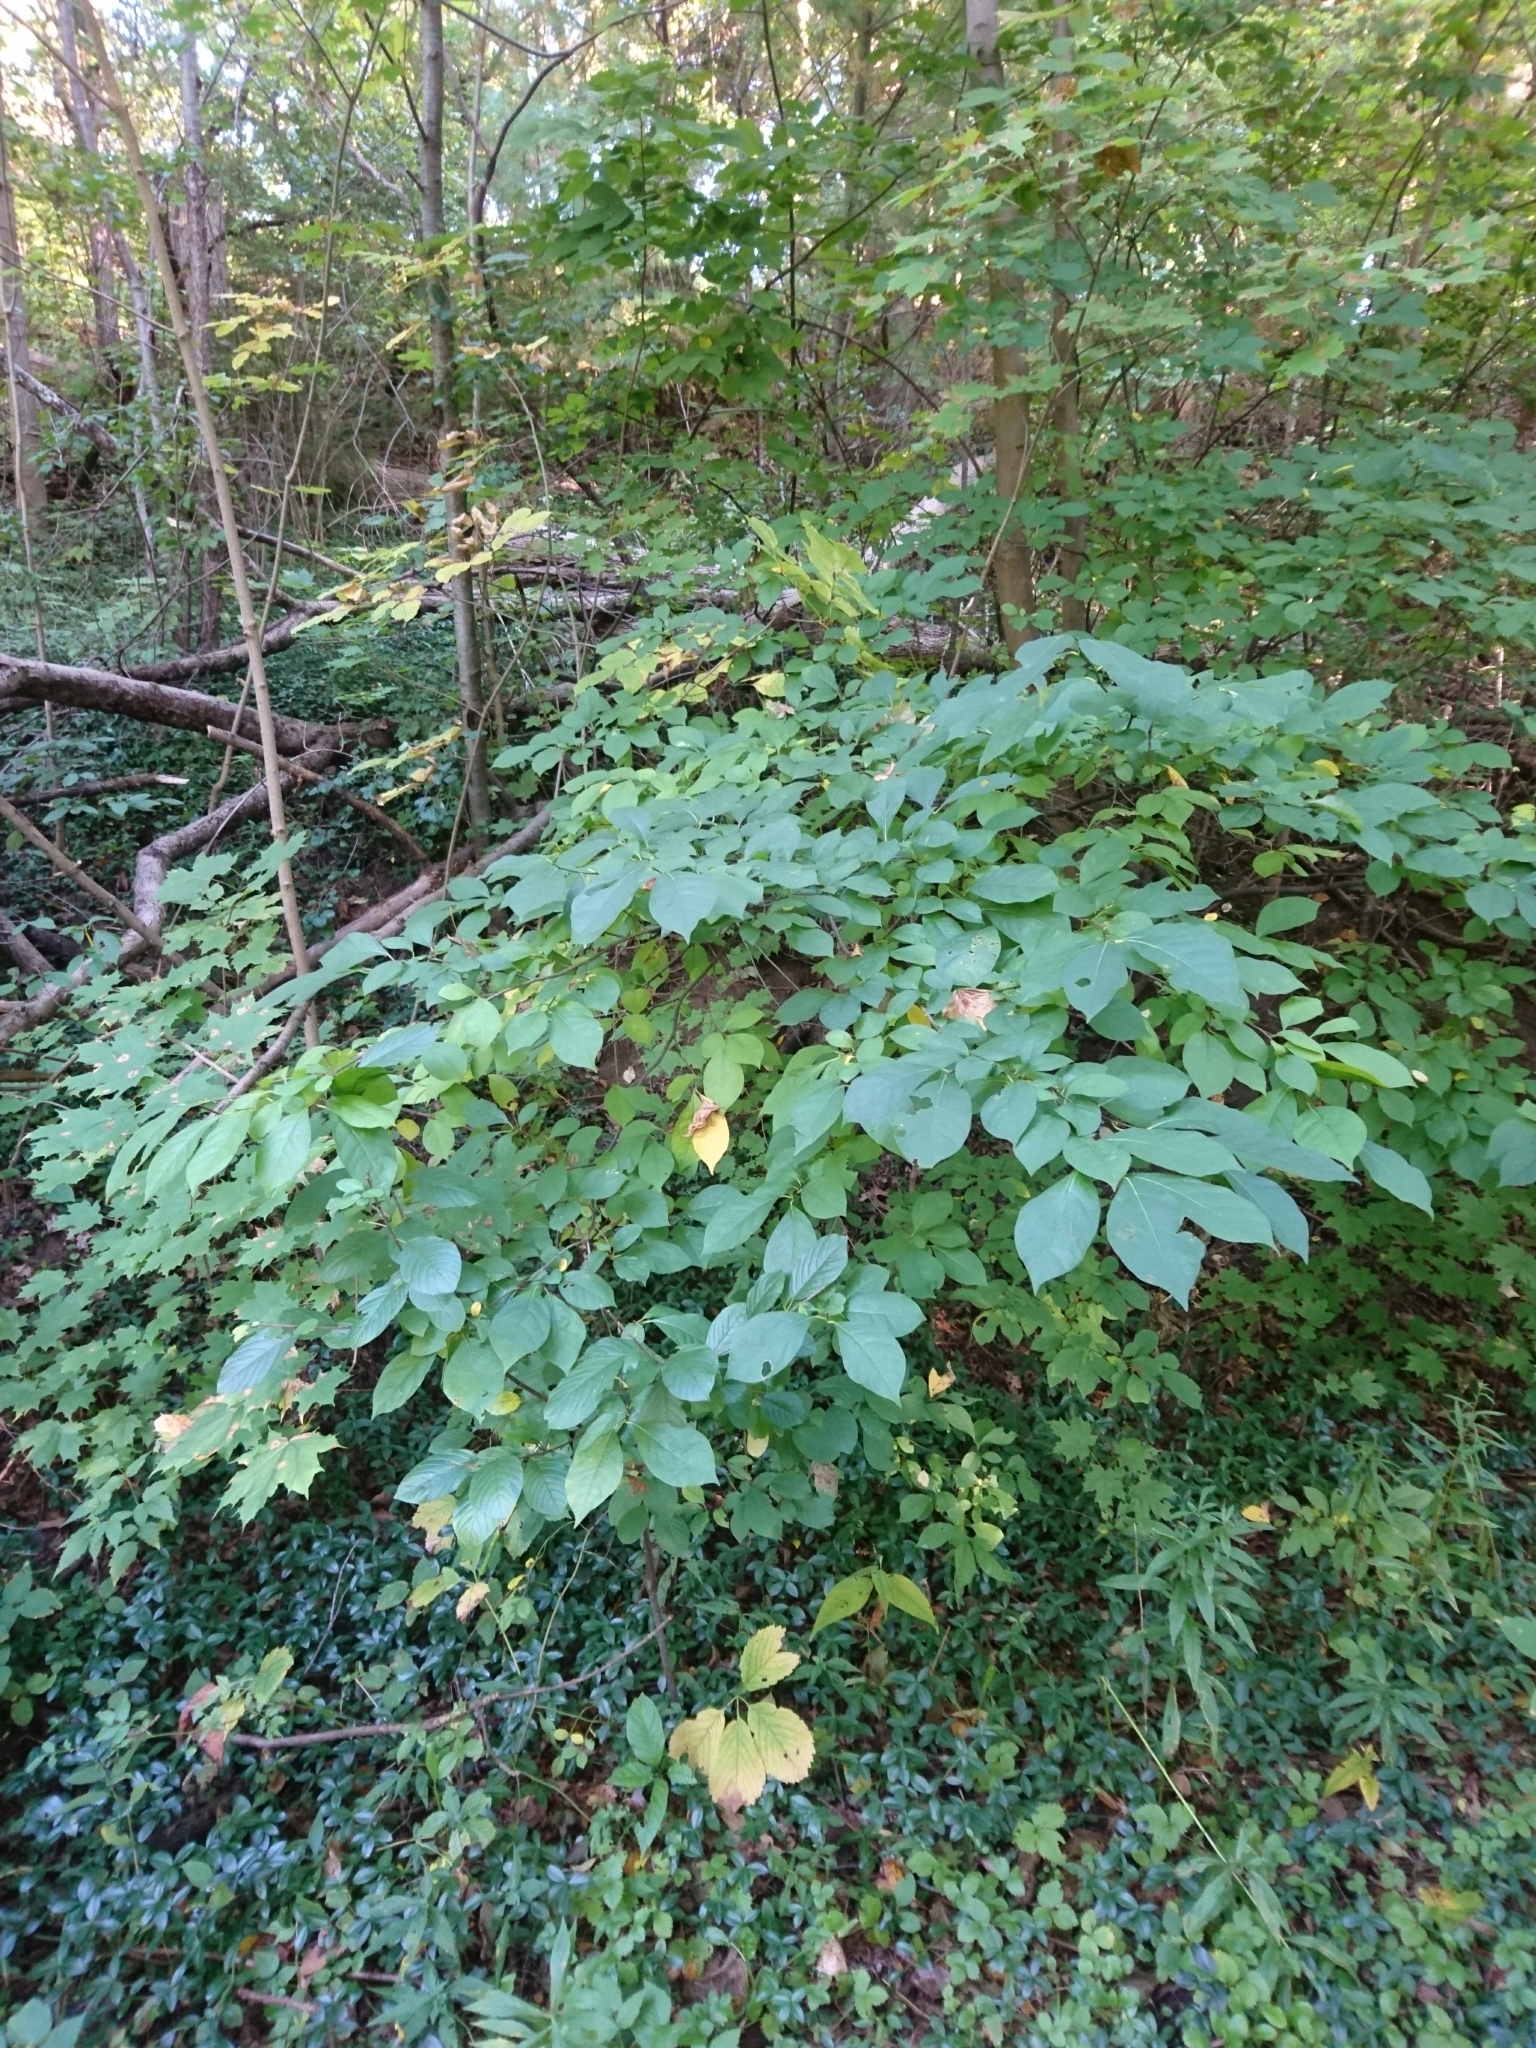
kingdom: Plantae
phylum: Tracheophyta
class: Magnoliopsida
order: Laurales
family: Lauraceae
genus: Lindera
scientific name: Lindera benzoin
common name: Spicebush
